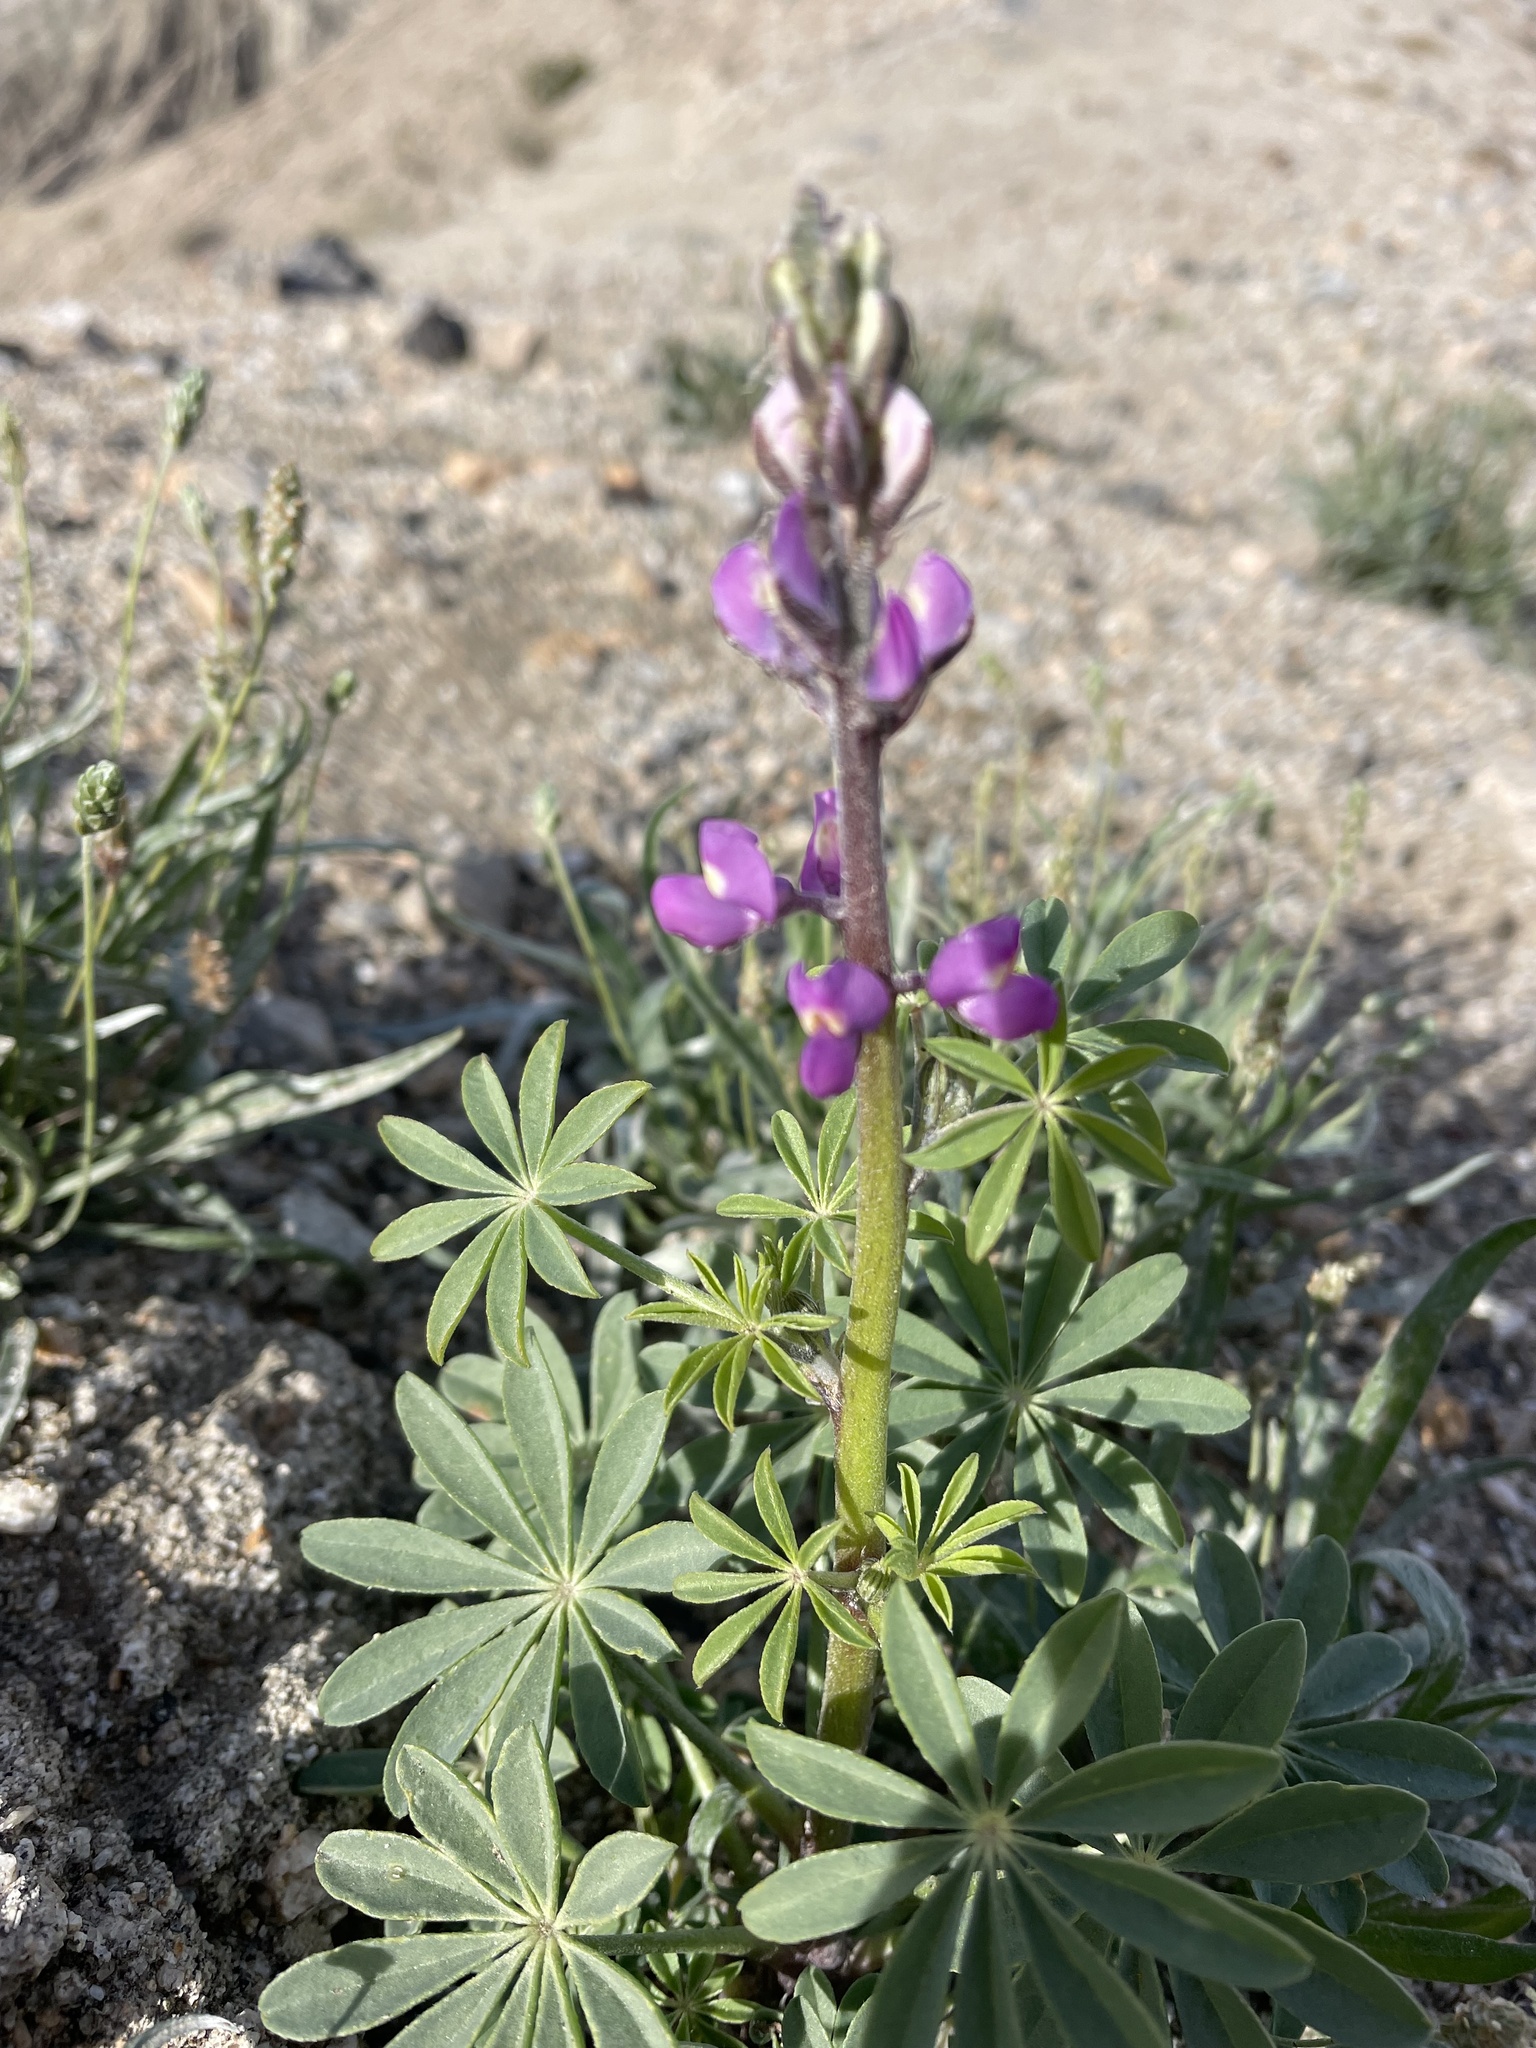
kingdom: Plantae
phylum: Tracheophyta
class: Magnoliopsida
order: Fabales
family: Fabaceae
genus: Lupinus
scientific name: Lupinus arizonicus
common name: Arizona lupine
